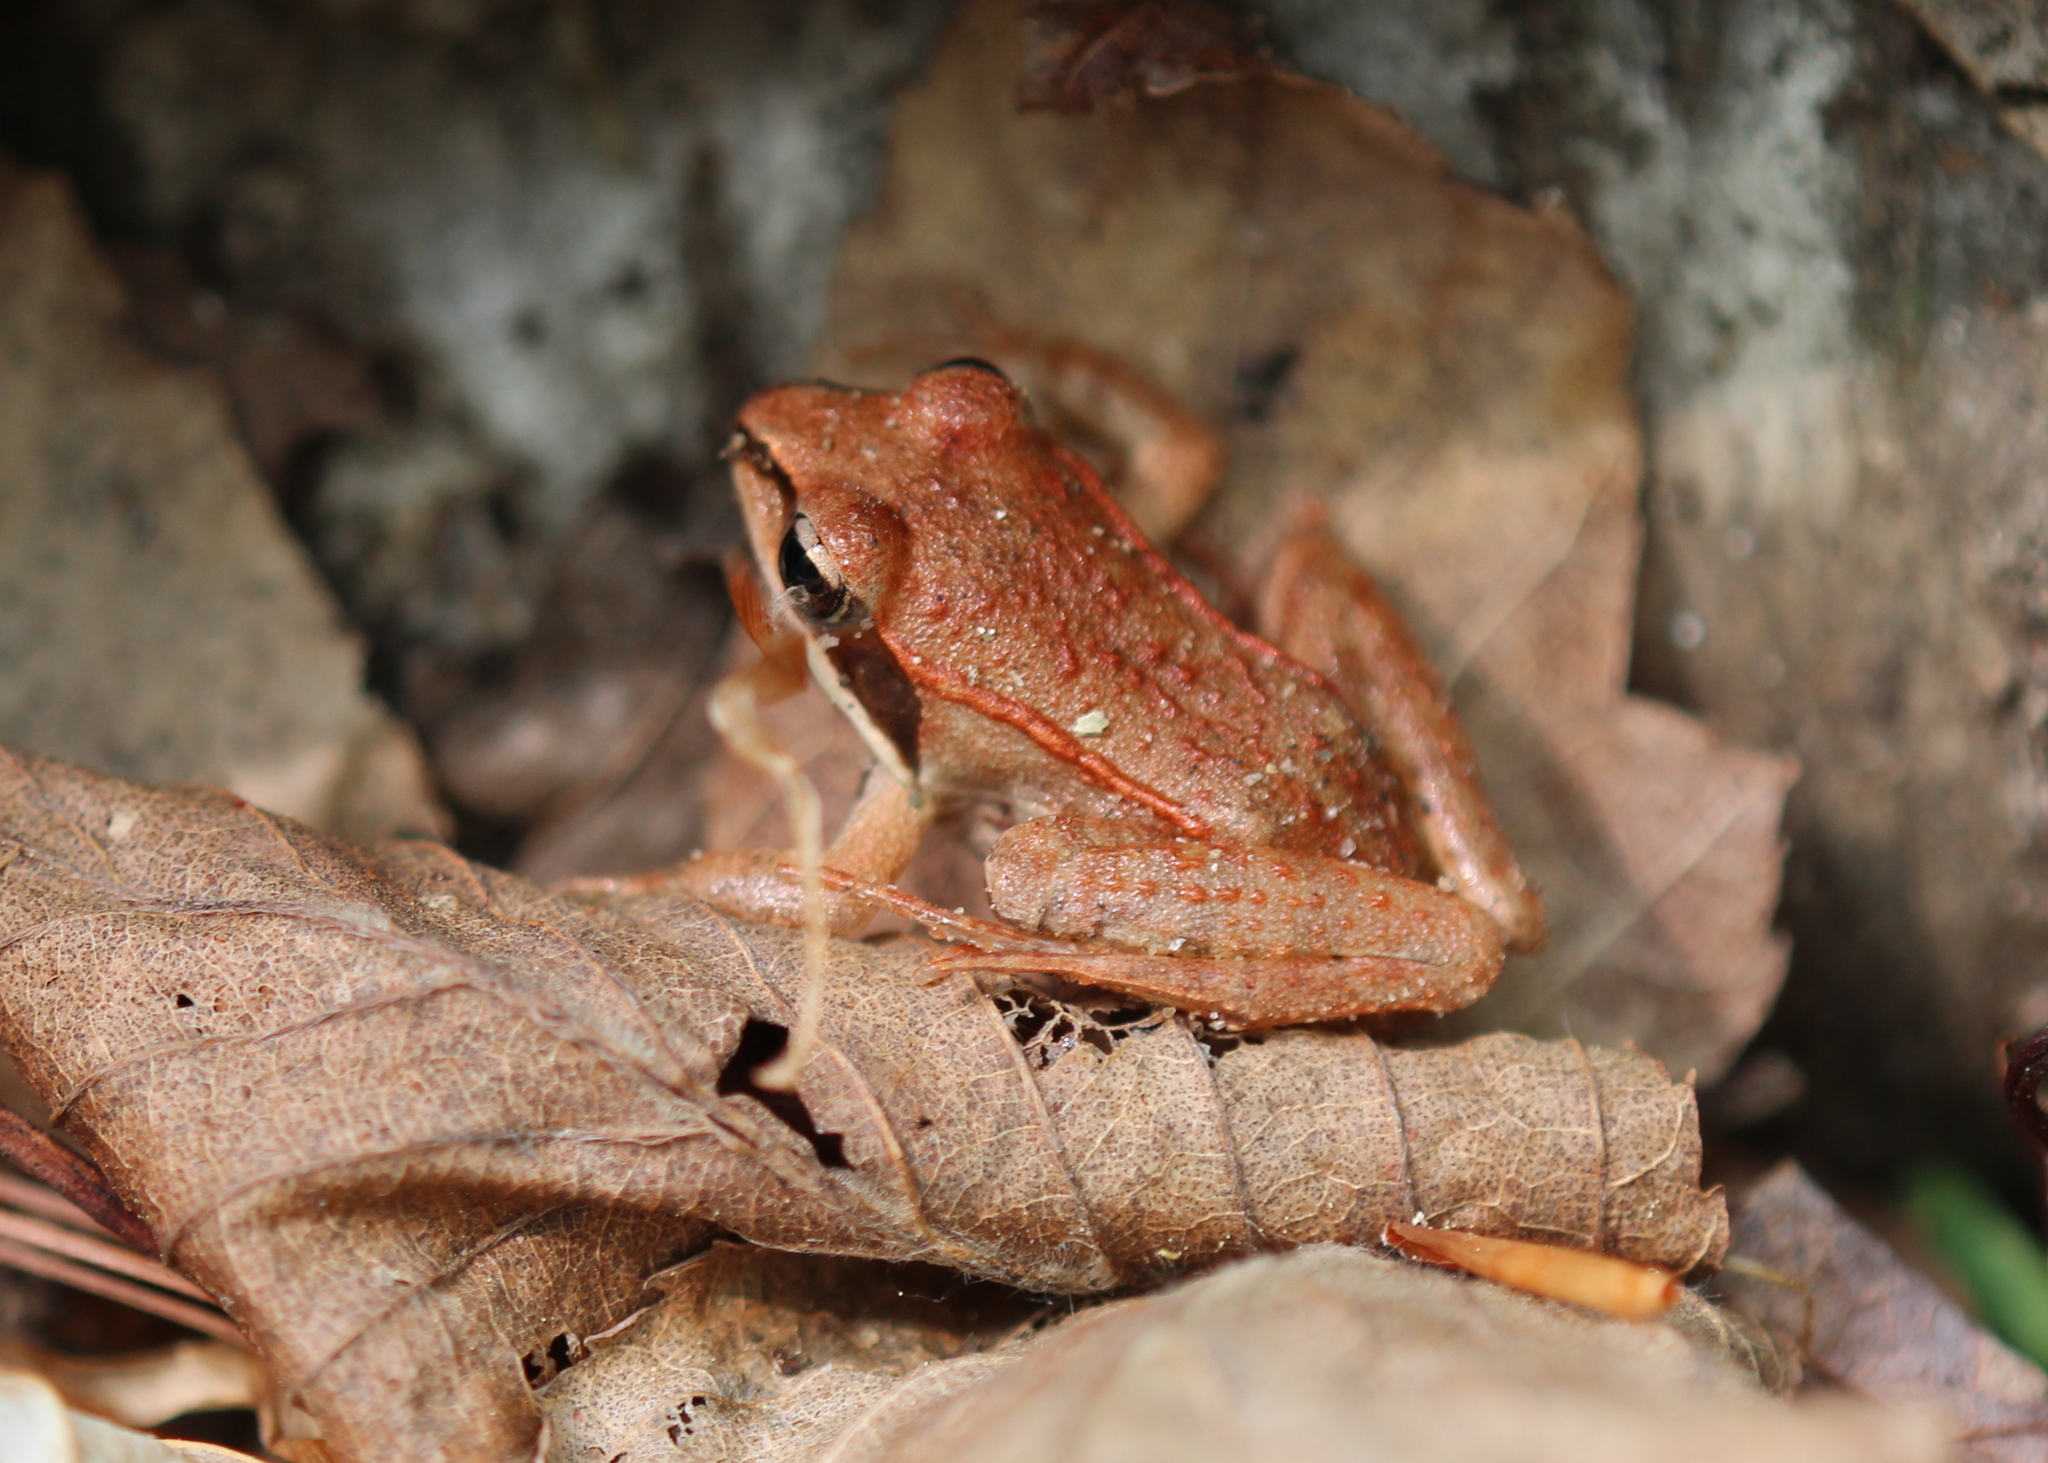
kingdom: Animalia
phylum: Chordata
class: Amphibia
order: Anura
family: Ranidae
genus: Lithobates
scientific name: Lithobates sylvaticus
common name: Wood frog
